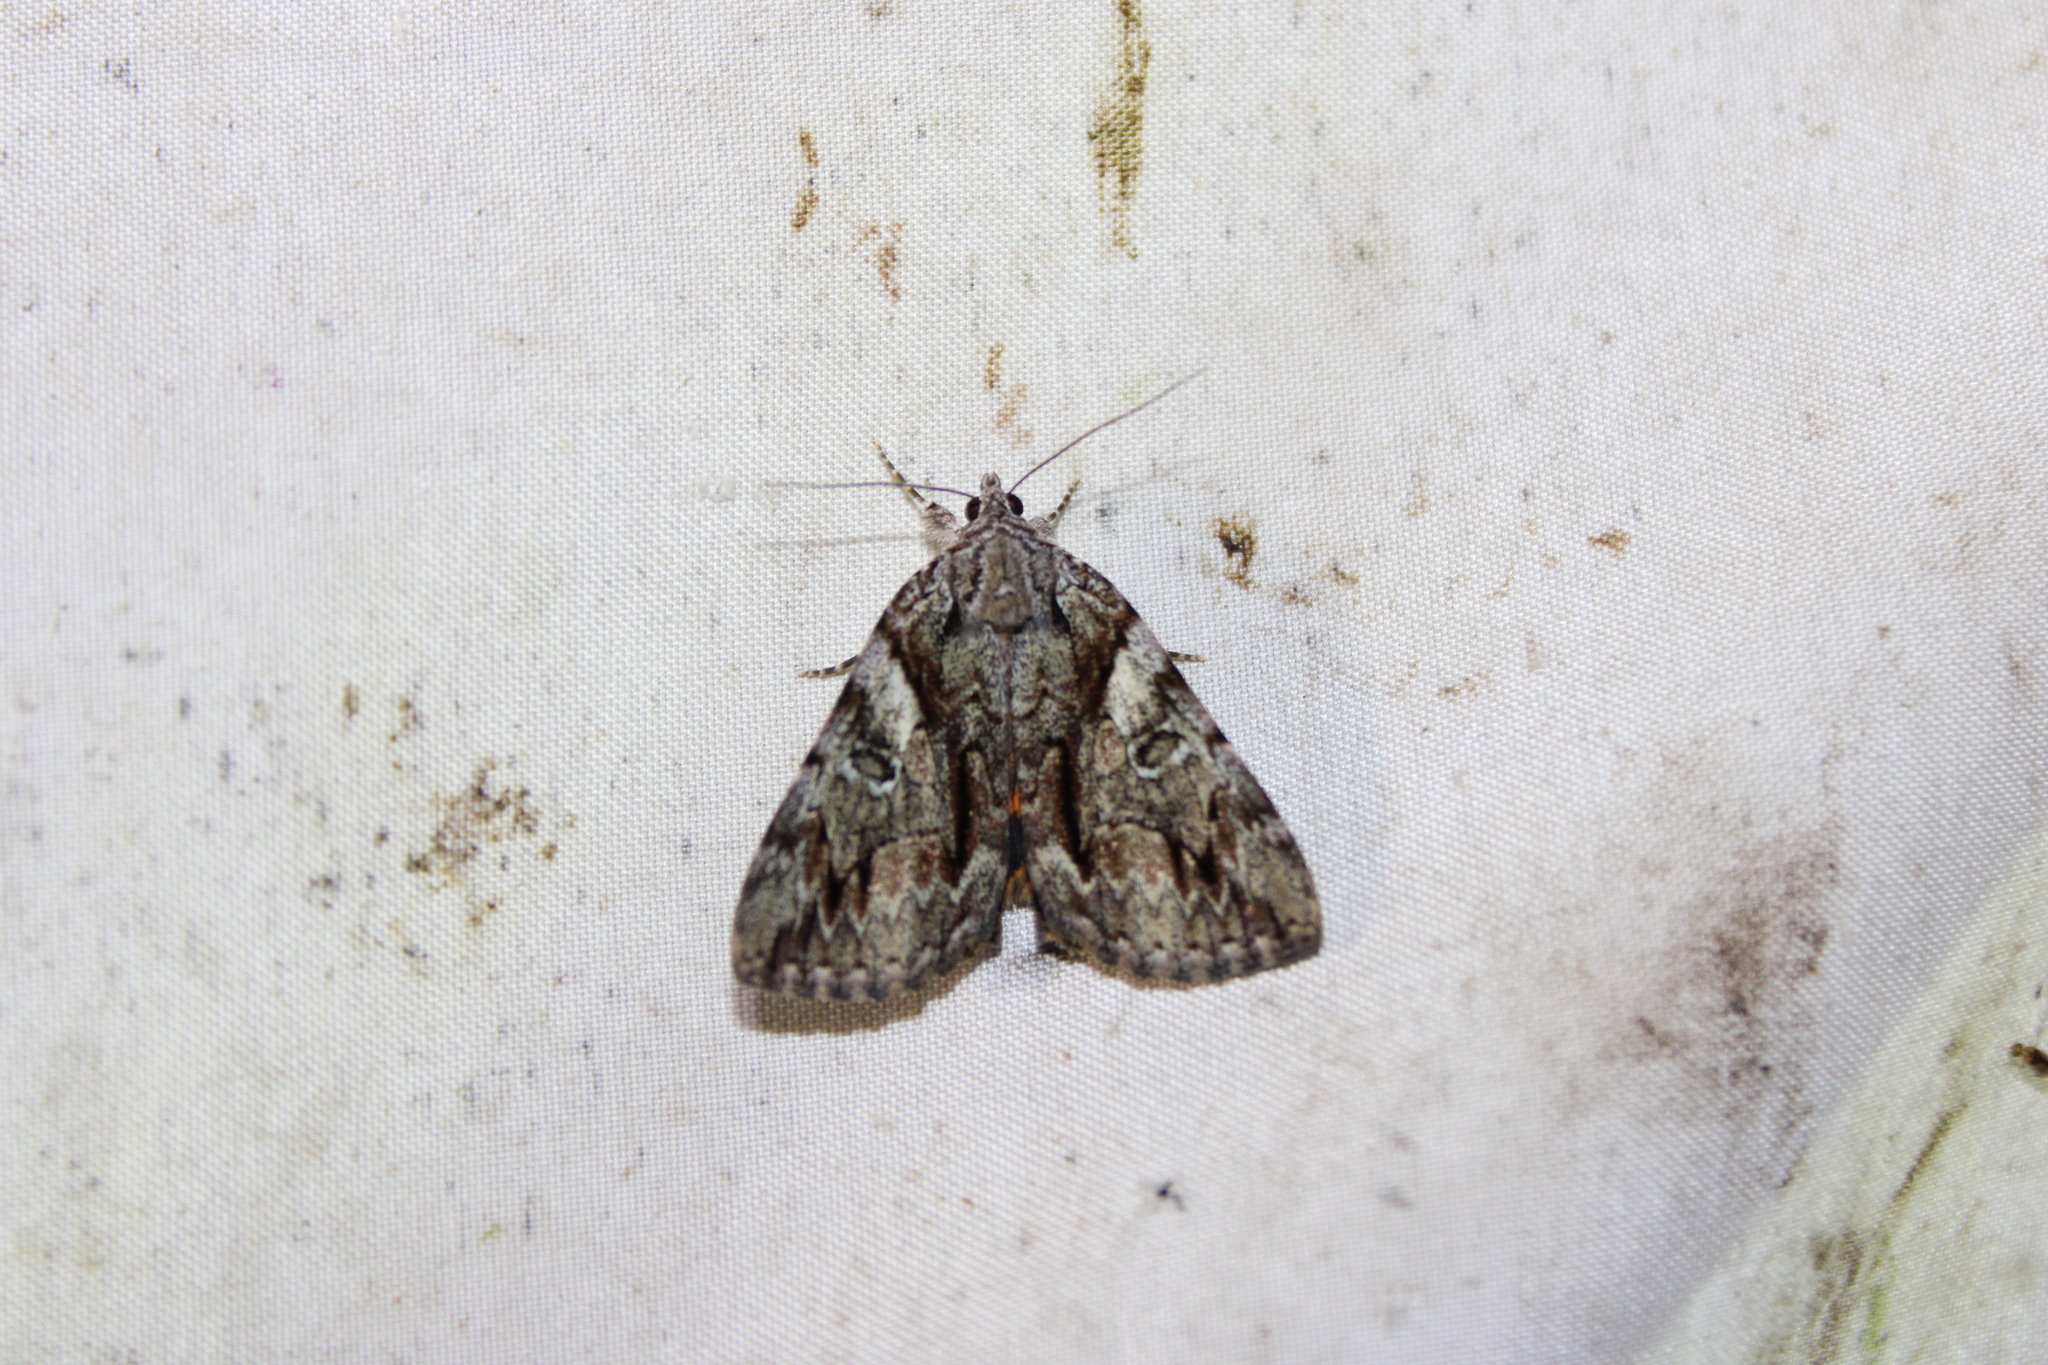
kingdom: Animalia
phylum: Arthropoda
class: Insecta
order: Lepidoptera
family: Erebidae
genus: Catocala
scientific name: Catocala blandula
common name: Charming underwing
